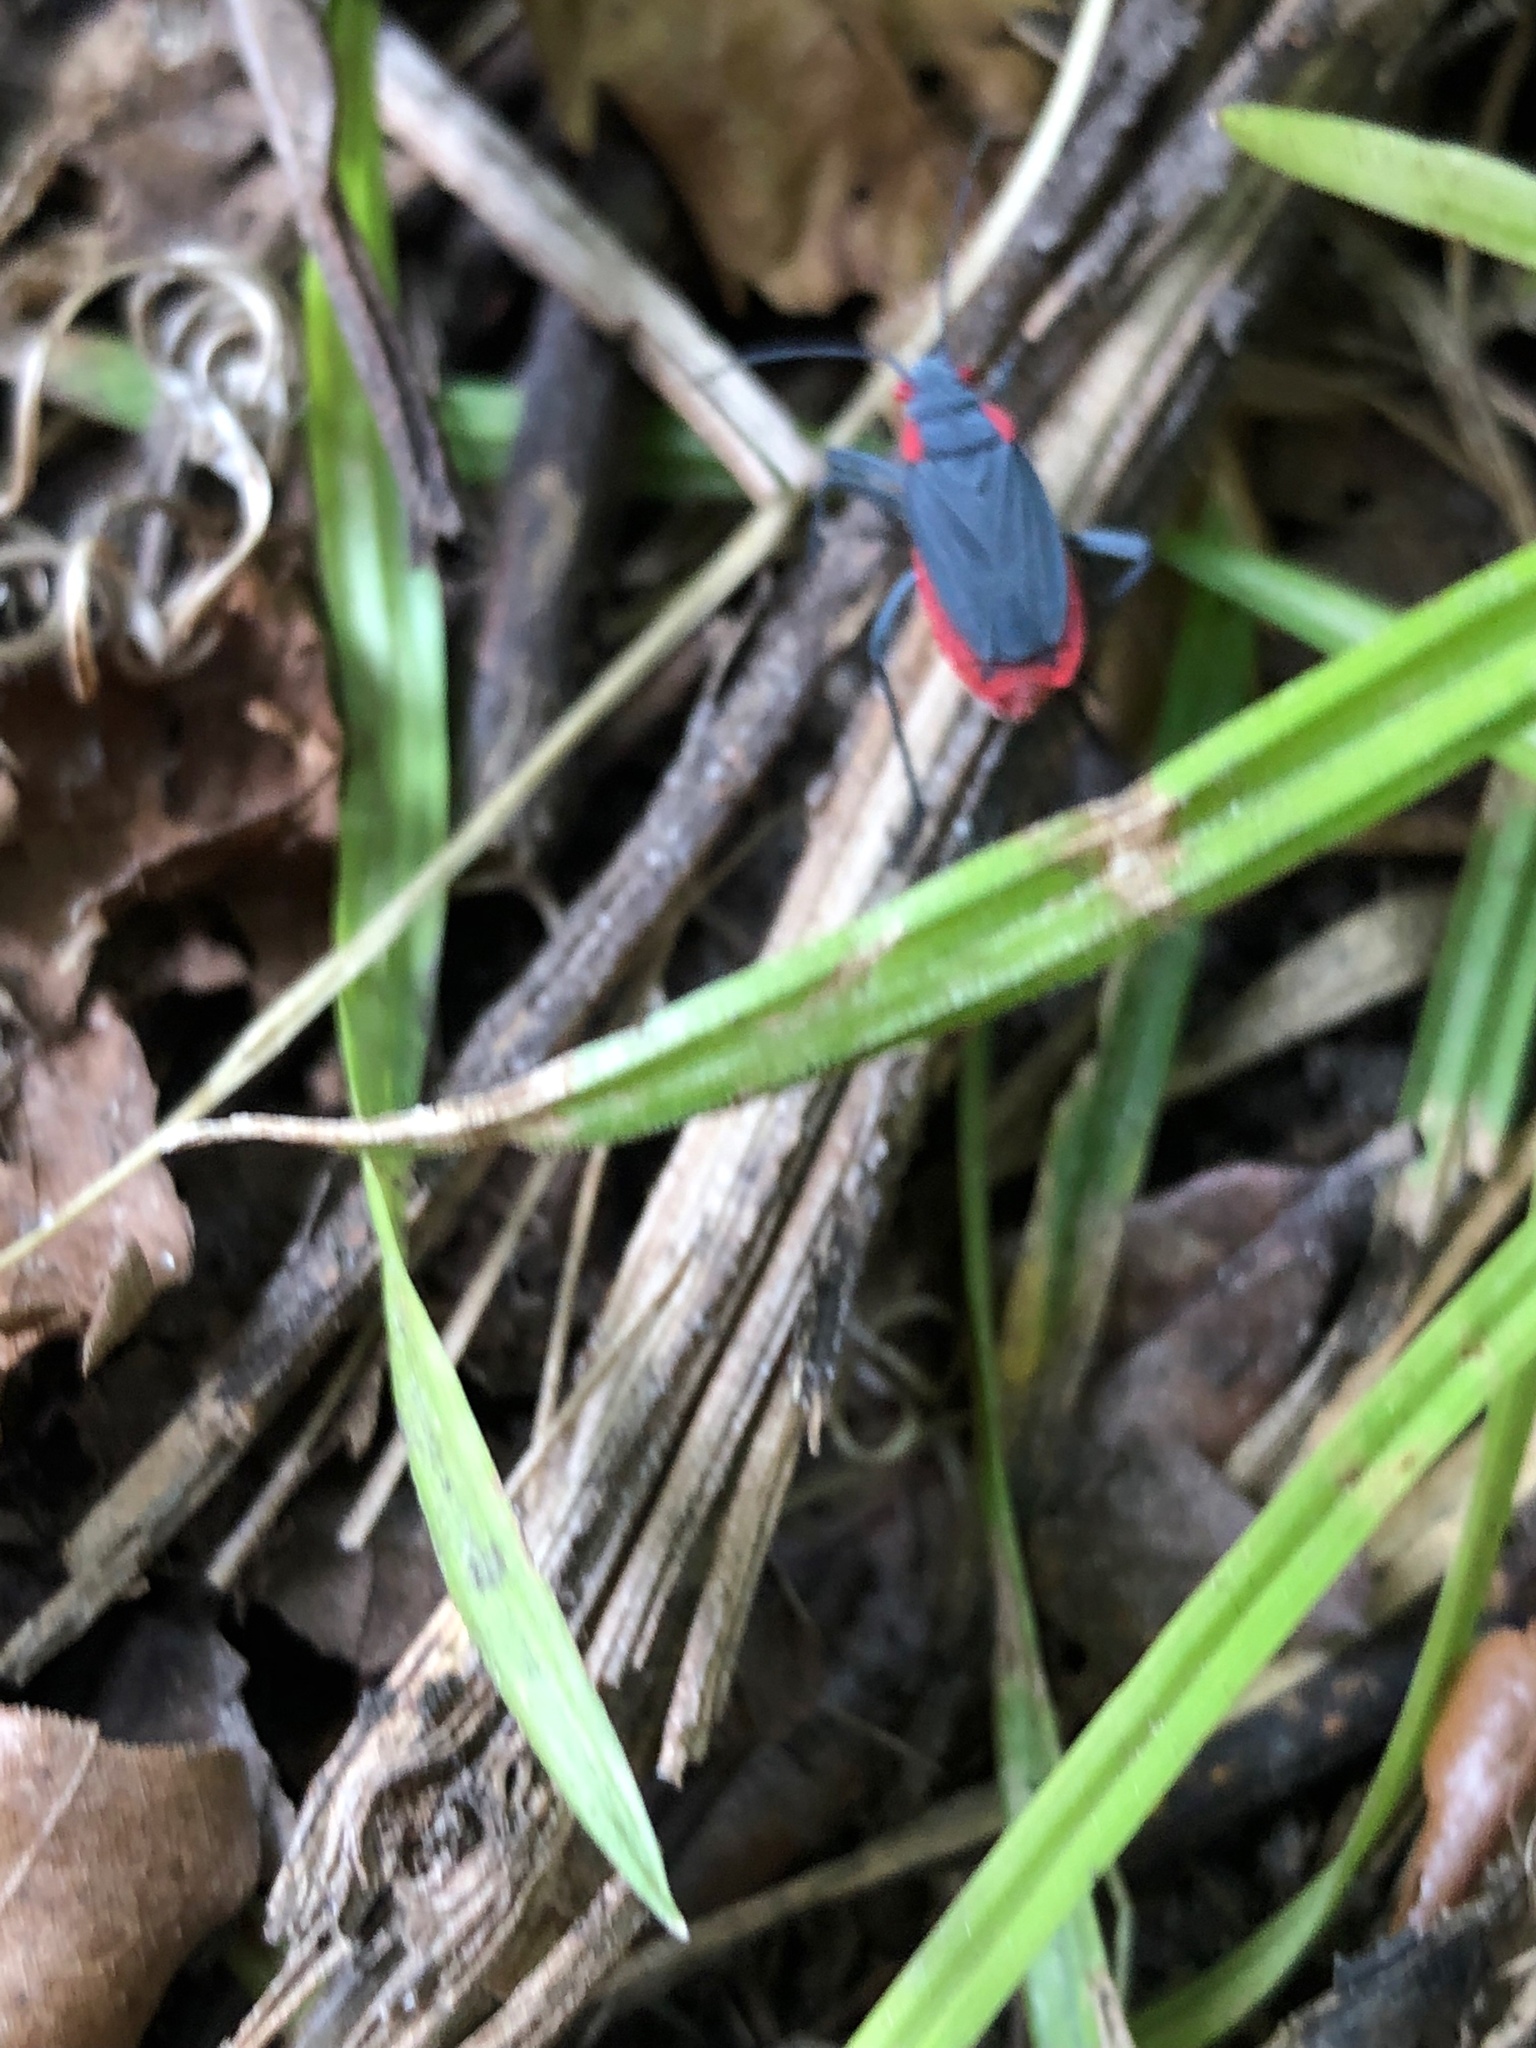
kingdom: Animalia
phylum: Arthropoda
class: Insecta
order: Hemiptera
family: Rhopalidae
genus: Jadera
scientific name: Jadera haematoloma
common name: Red-shouldered bug
